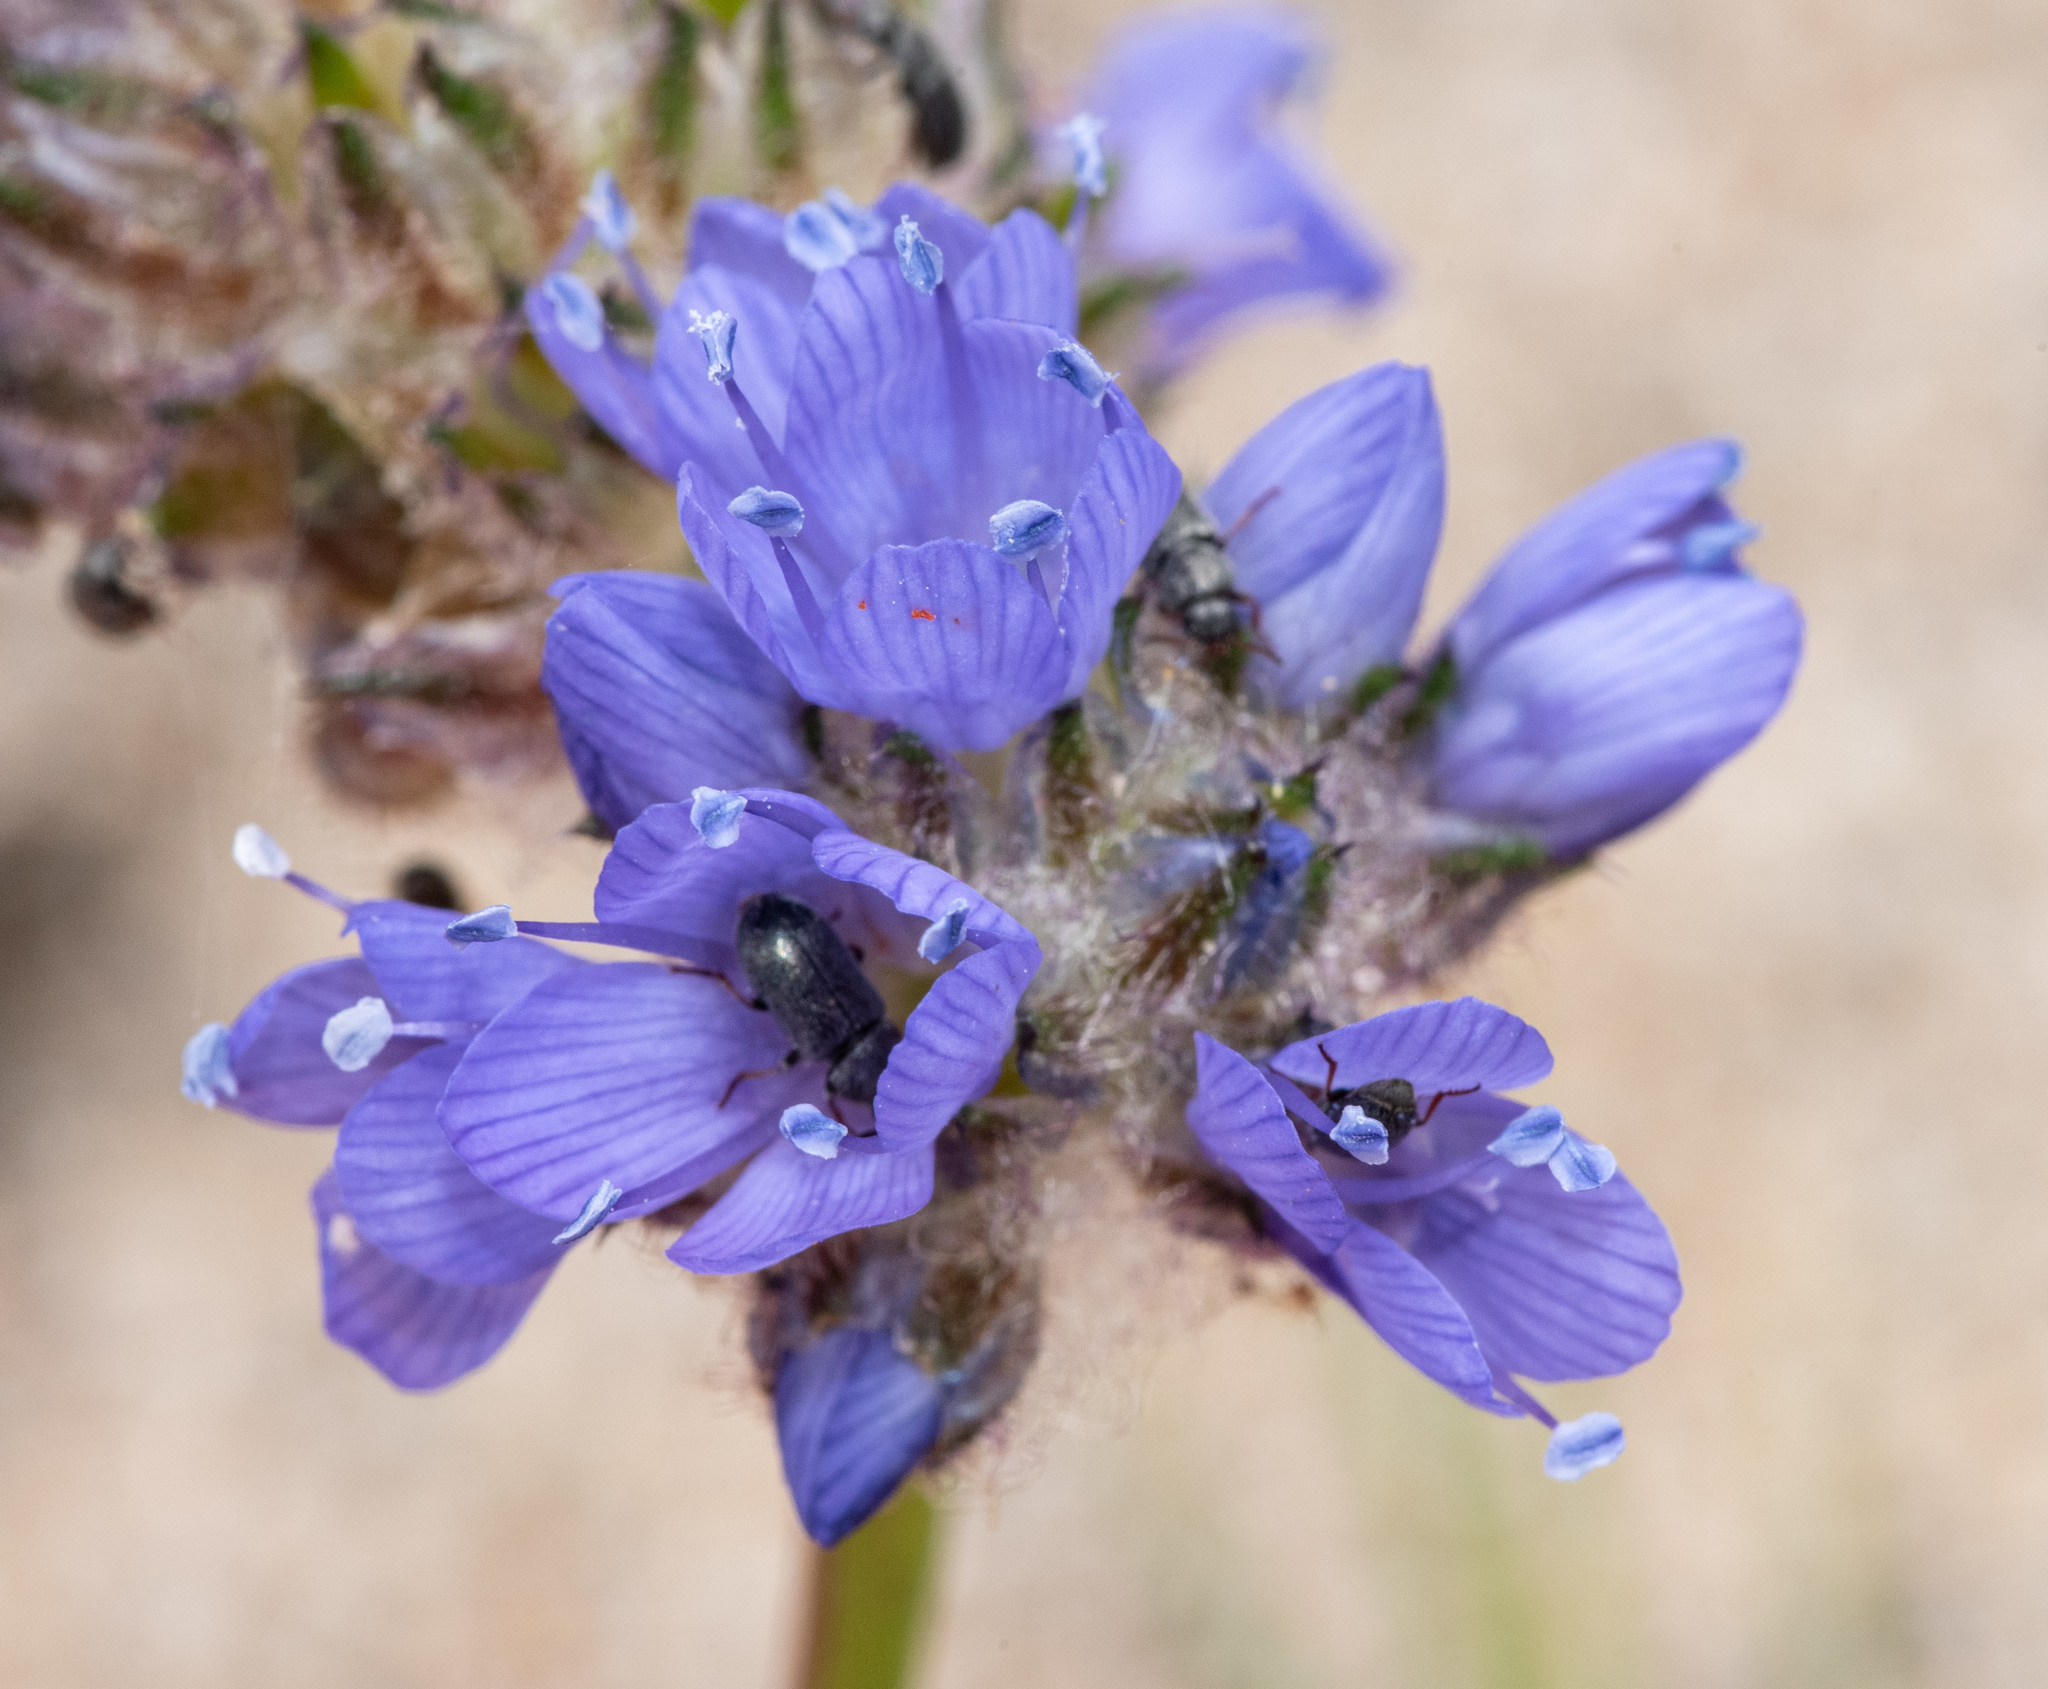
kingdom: Plantae
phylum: Tracheophyta
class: Magnoliopsida
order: Ericales
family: Polemoniaceae
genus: Gilia
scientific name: Gilia capitata
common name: Bluehead gilia
